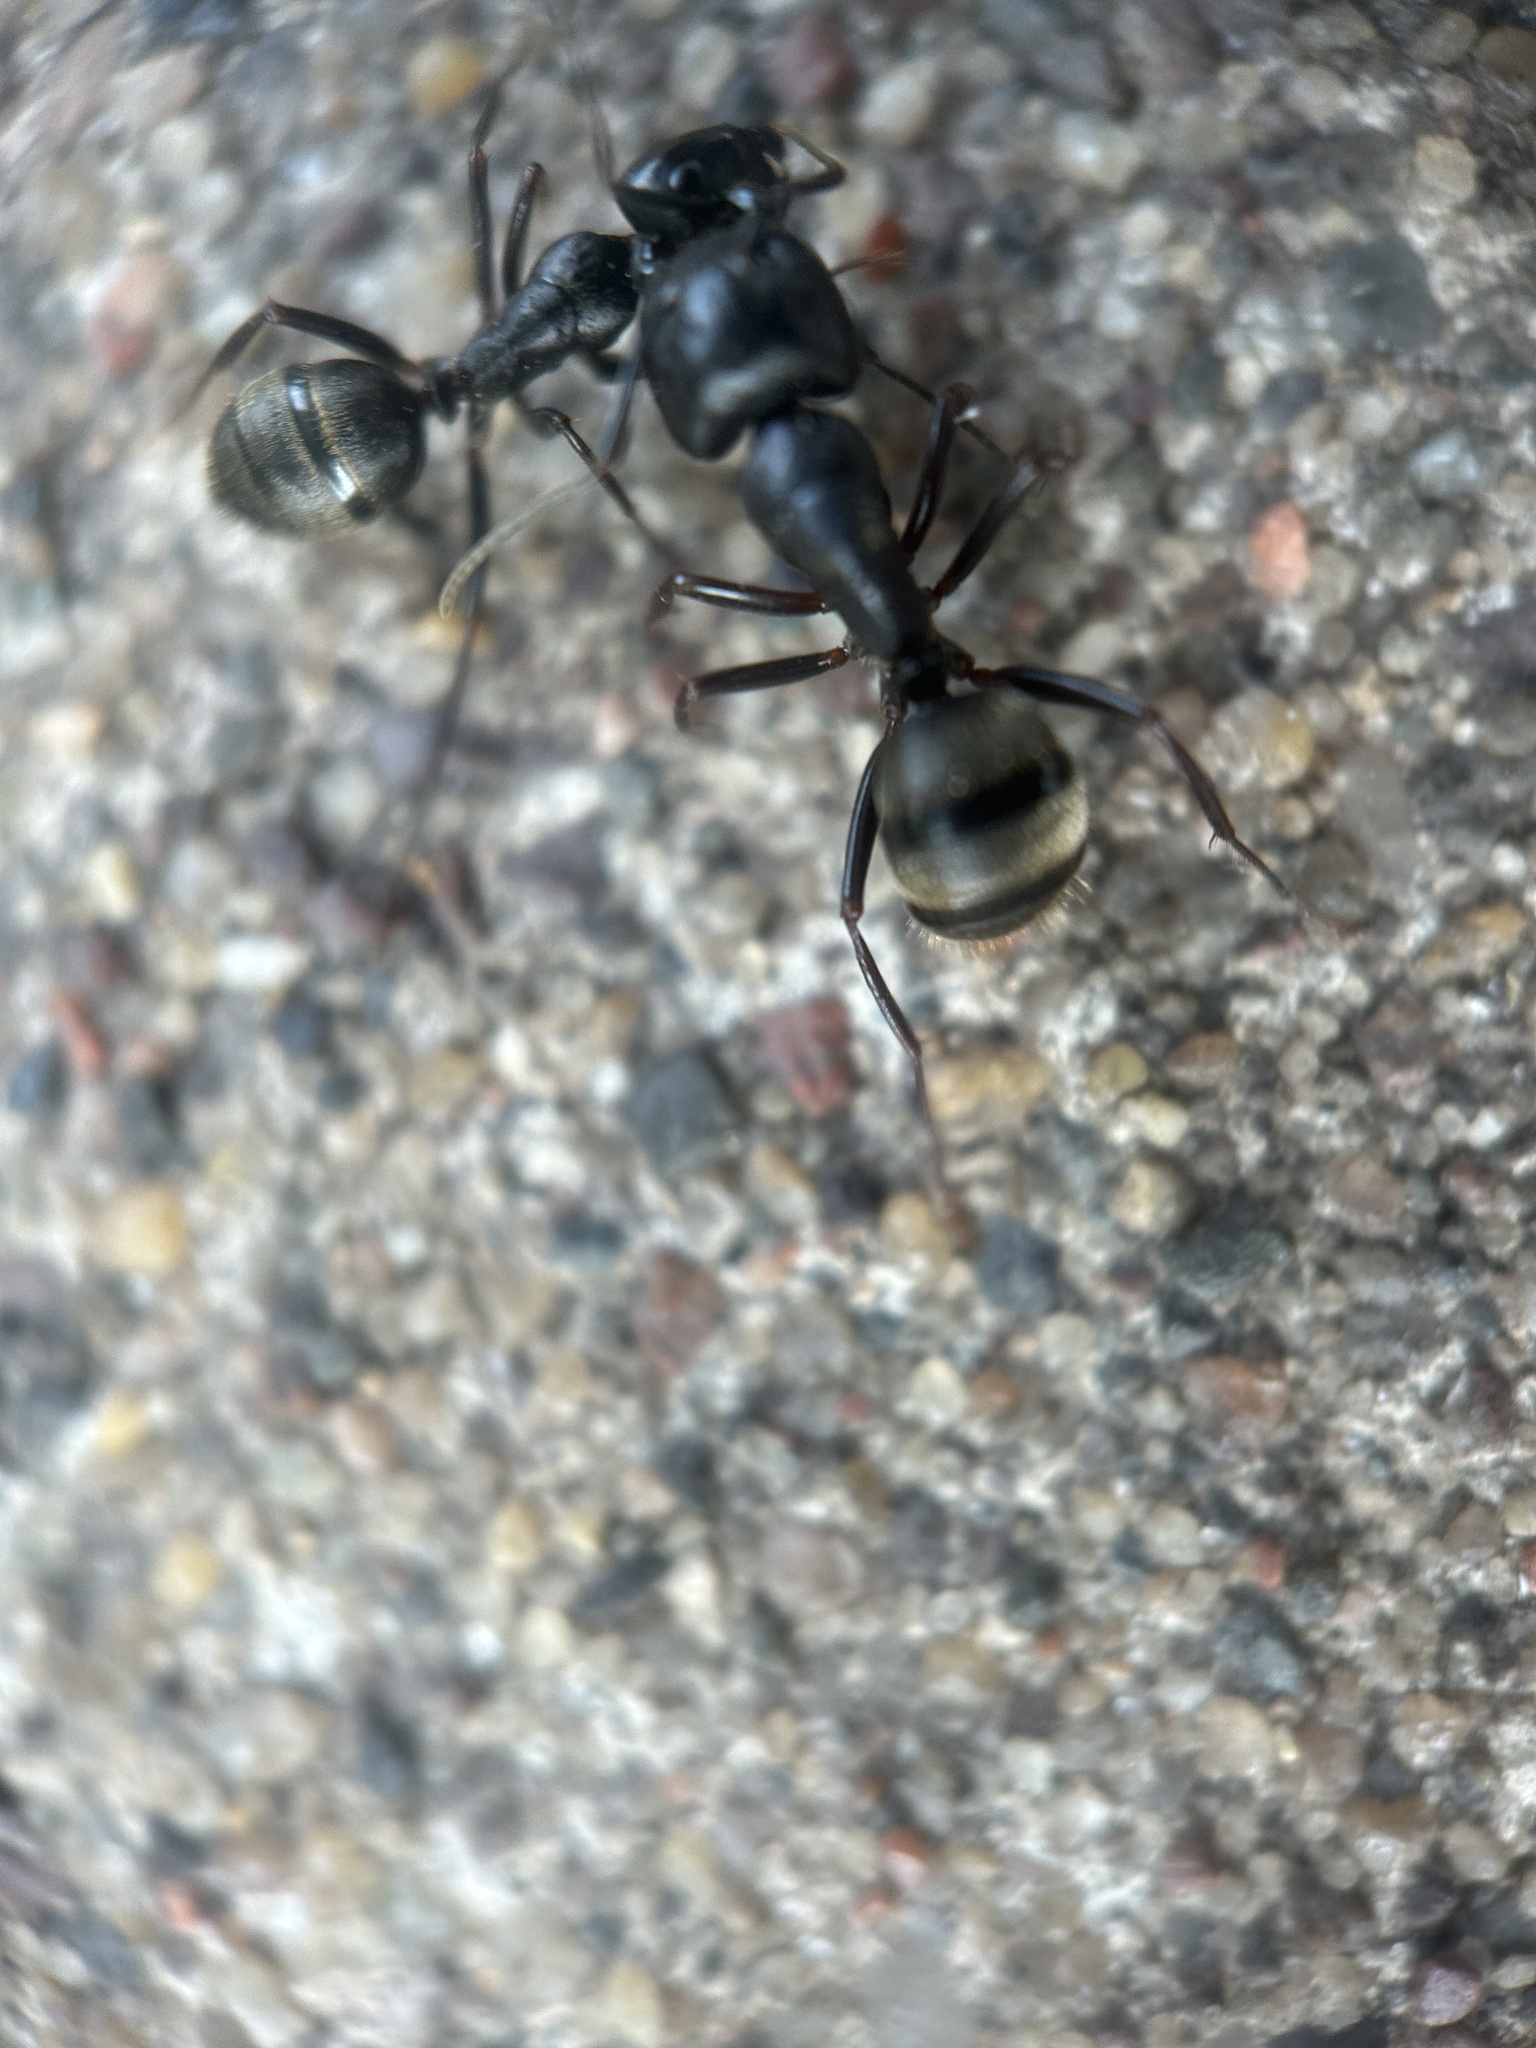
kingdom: Animalia
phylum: Arthropoda
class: Insecta
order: Hymenoptera
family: Formicidae
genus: Camponotus
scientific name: Camponotus pennsylvanicus
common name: Black carpenter ant
